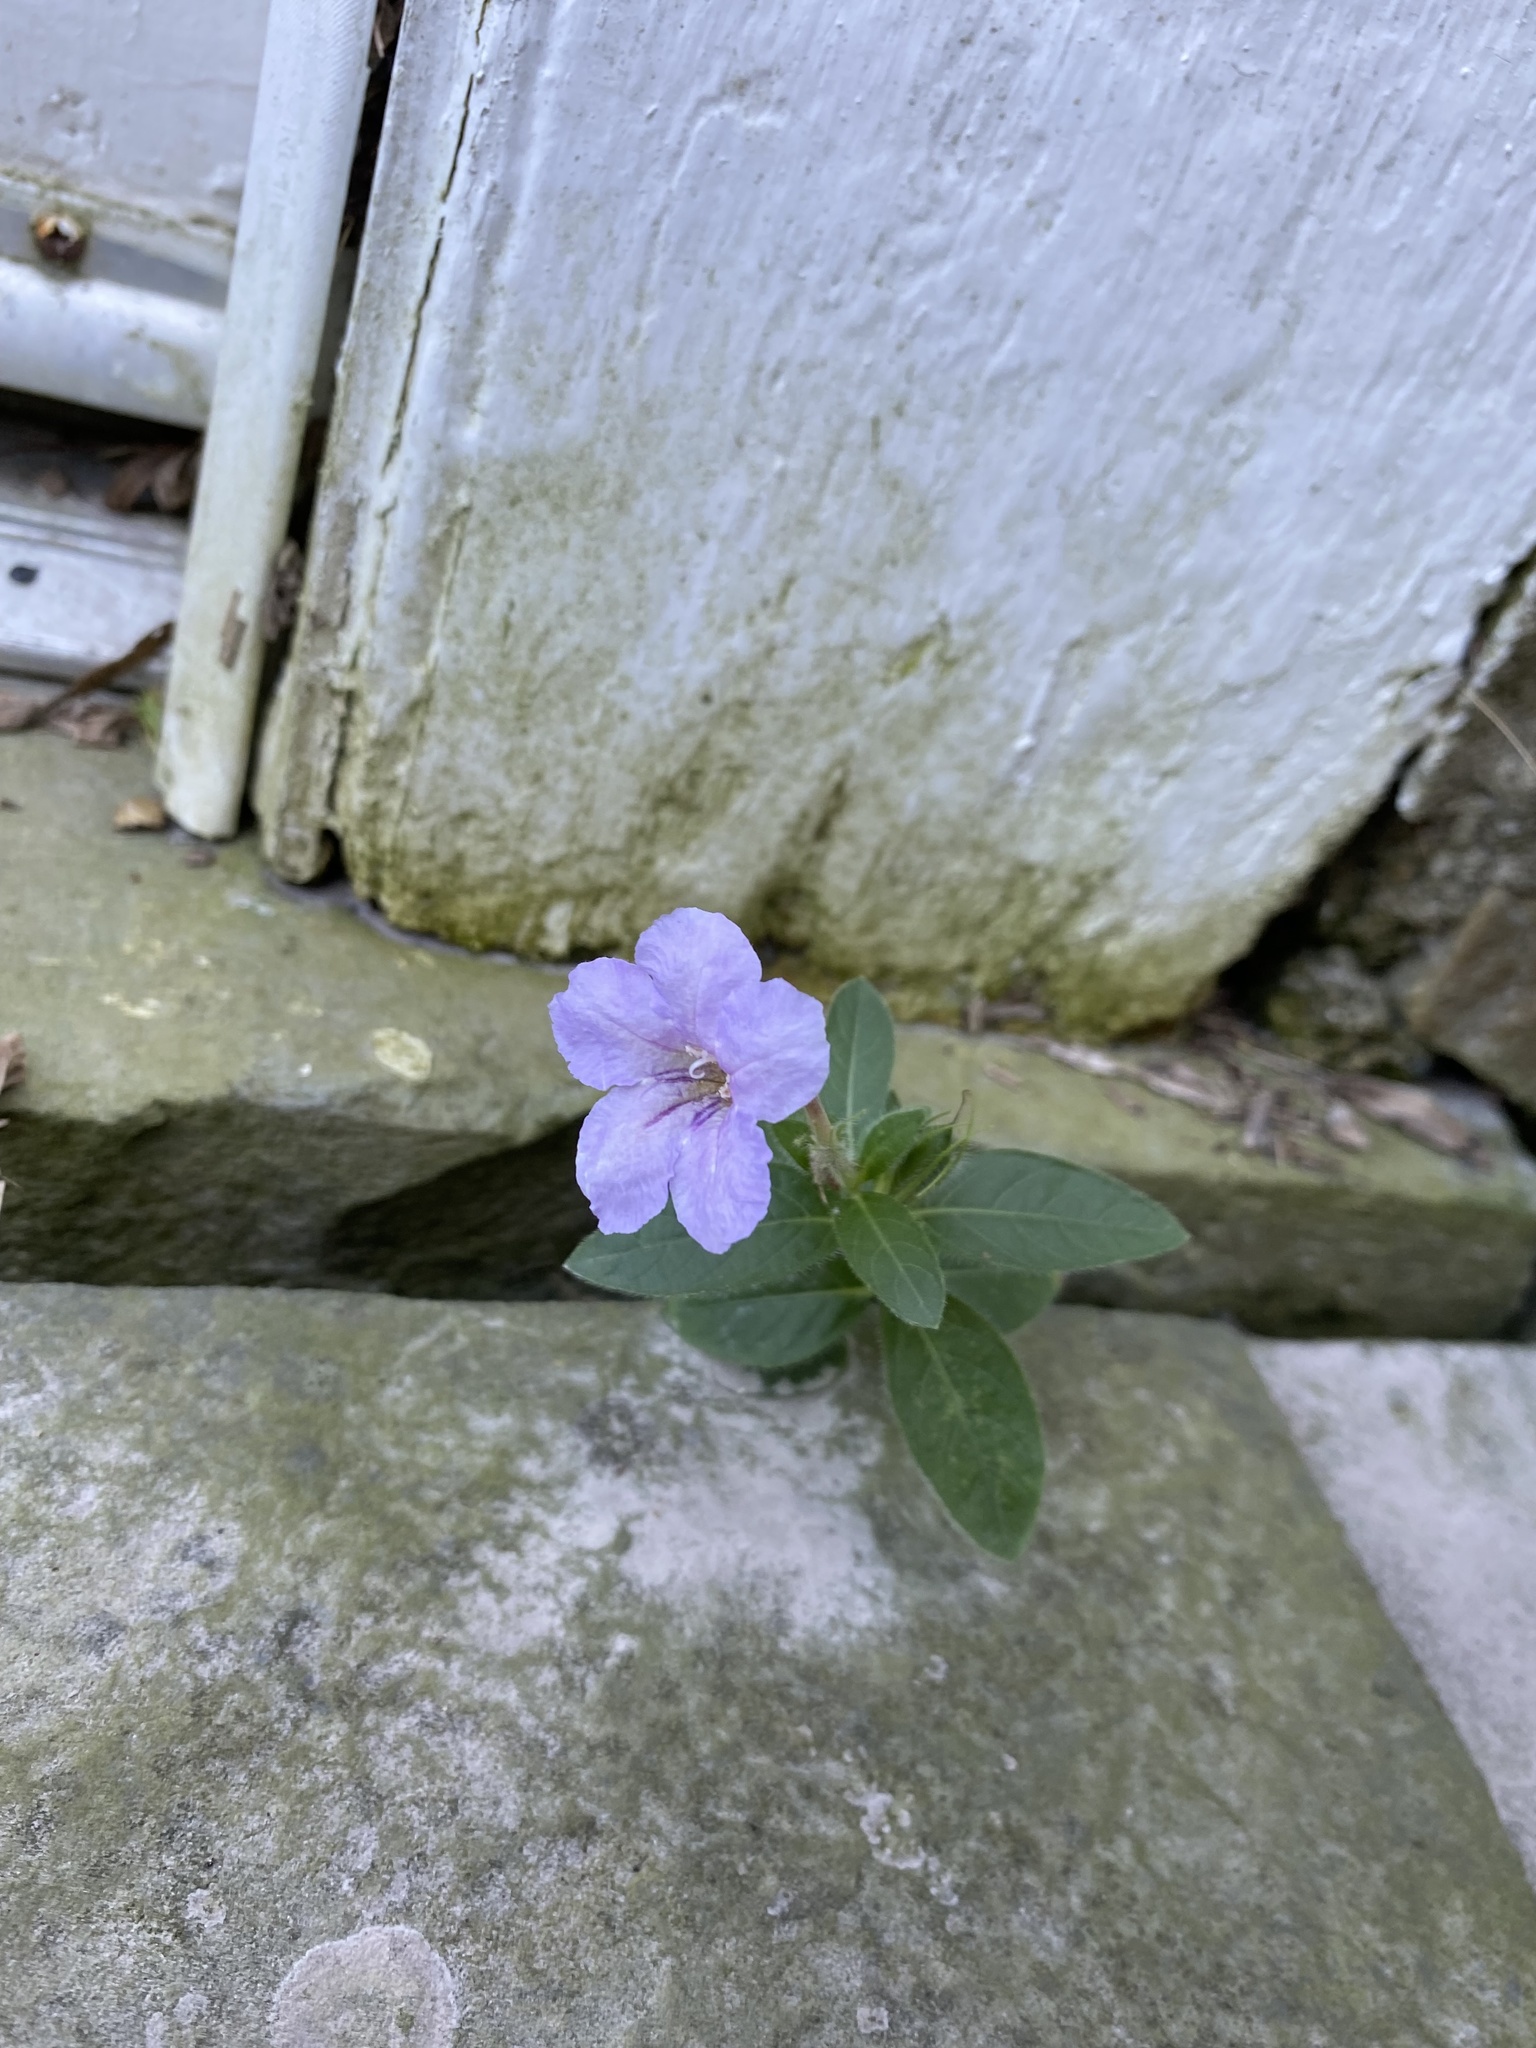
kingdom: Plantae
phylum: Tracheophyta
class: Magnoliopsida
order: Lamiales
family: Acanthaceae
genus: Ruellia
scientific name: Ruellia humilis
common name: Fringe-leaf ruellia
